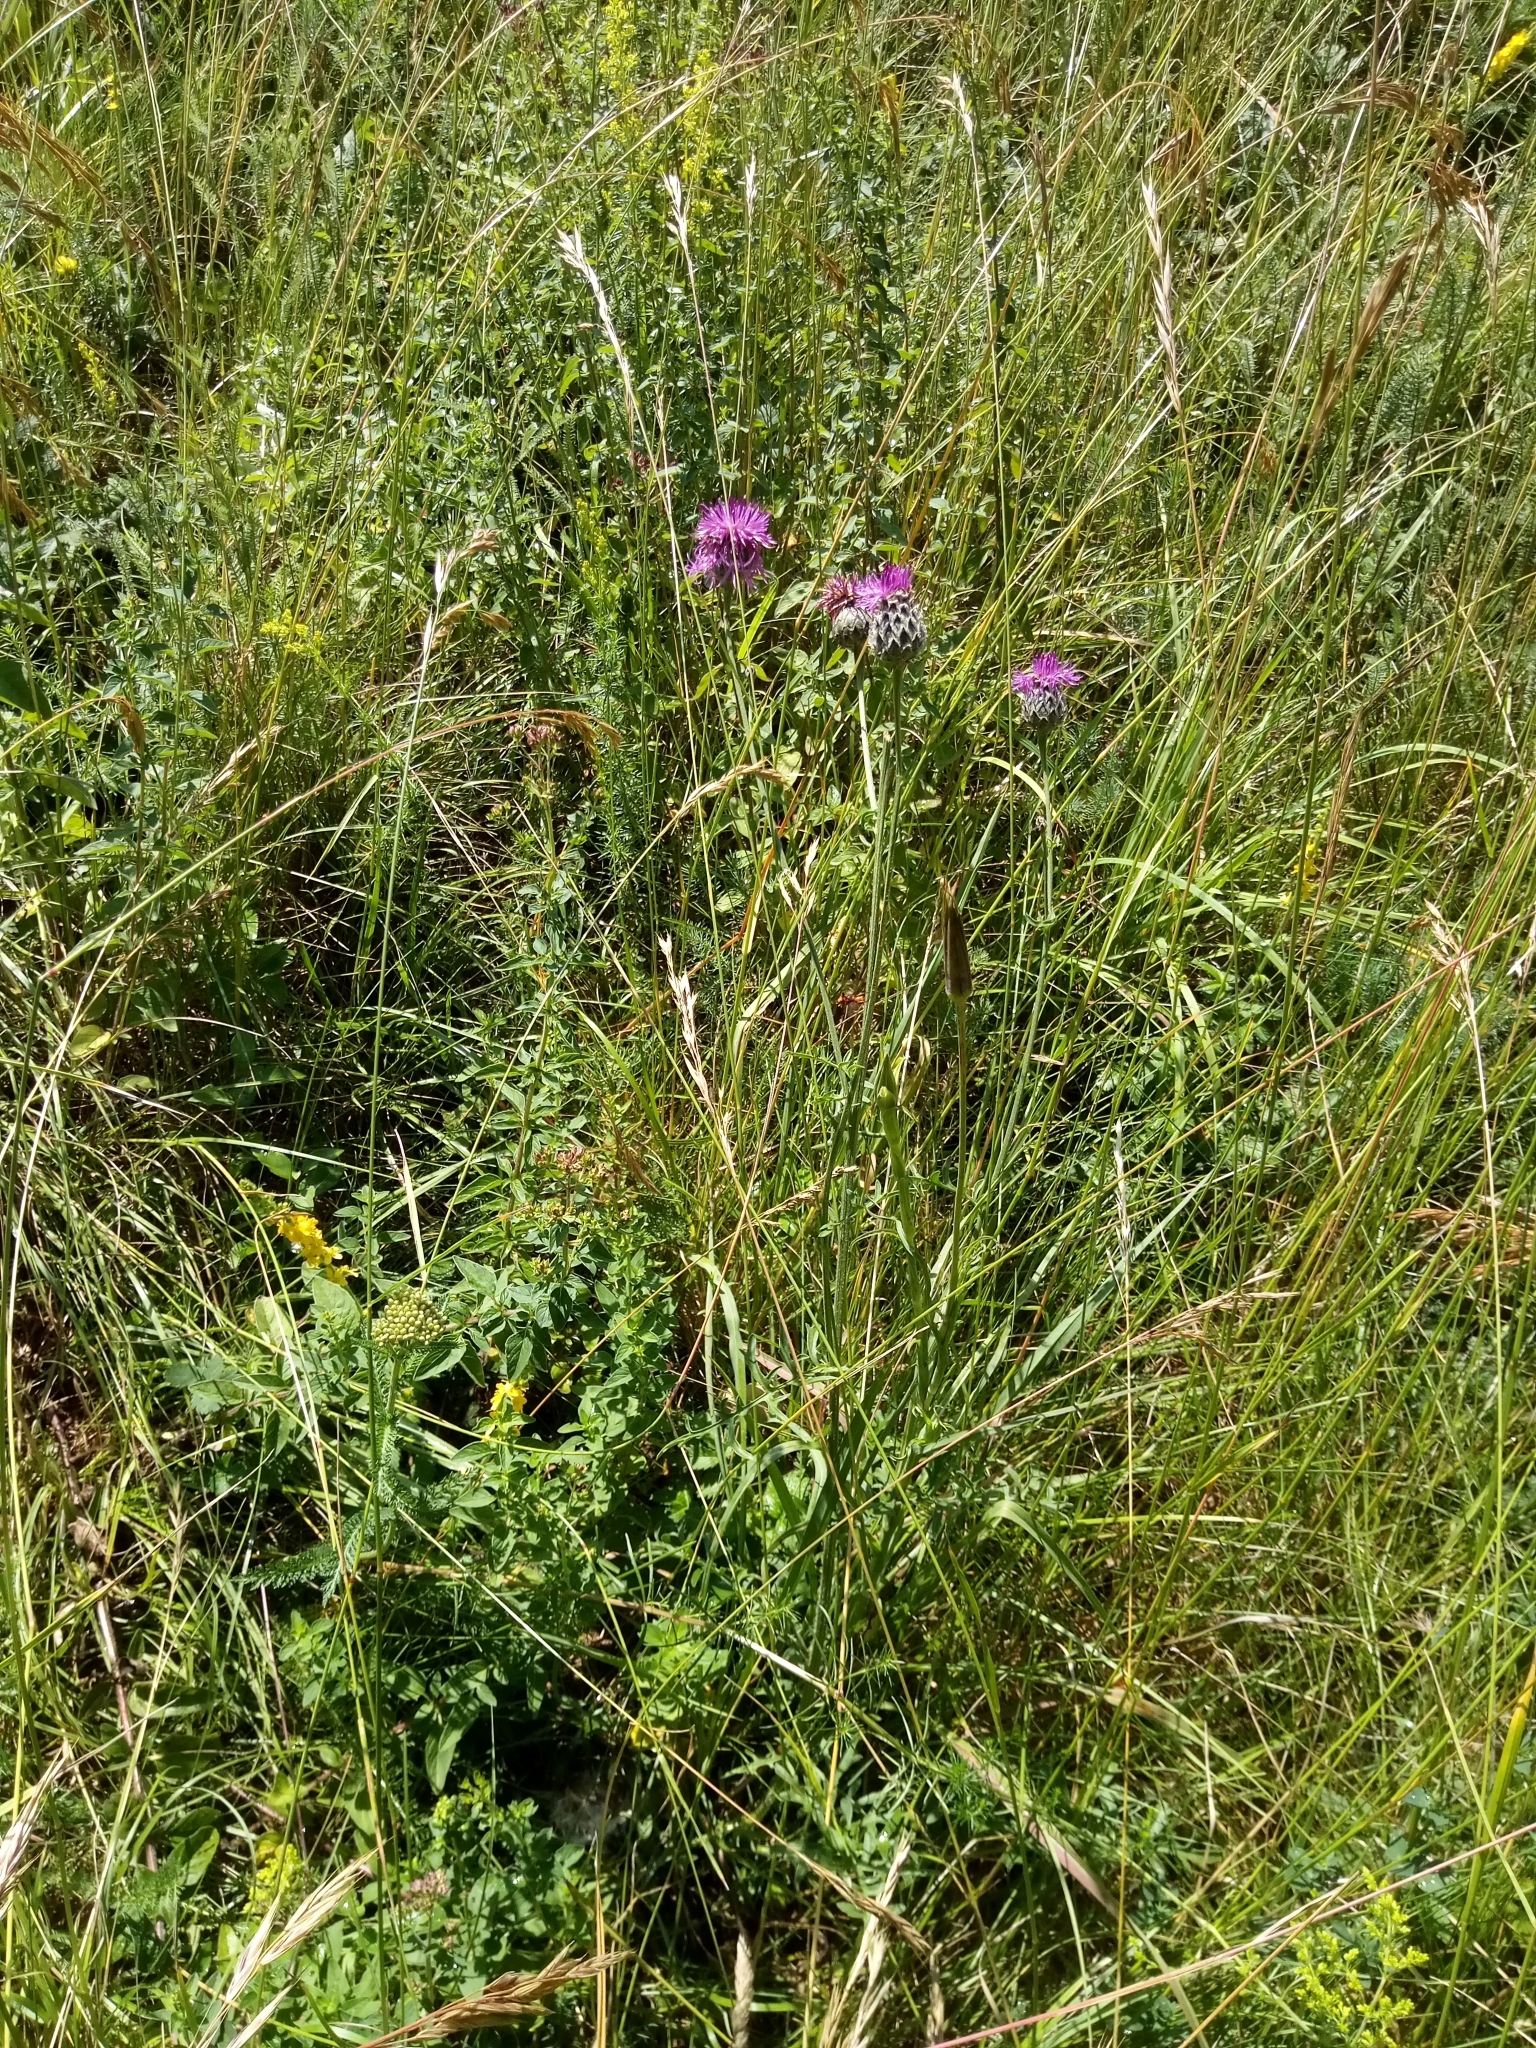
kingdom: Plantae
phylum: Tracheophyta
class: Magnoliopsida
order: Asterales
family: Asteraceae
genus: Centaurea
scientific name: Centaurea scabiosa
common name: Greater knapweed
